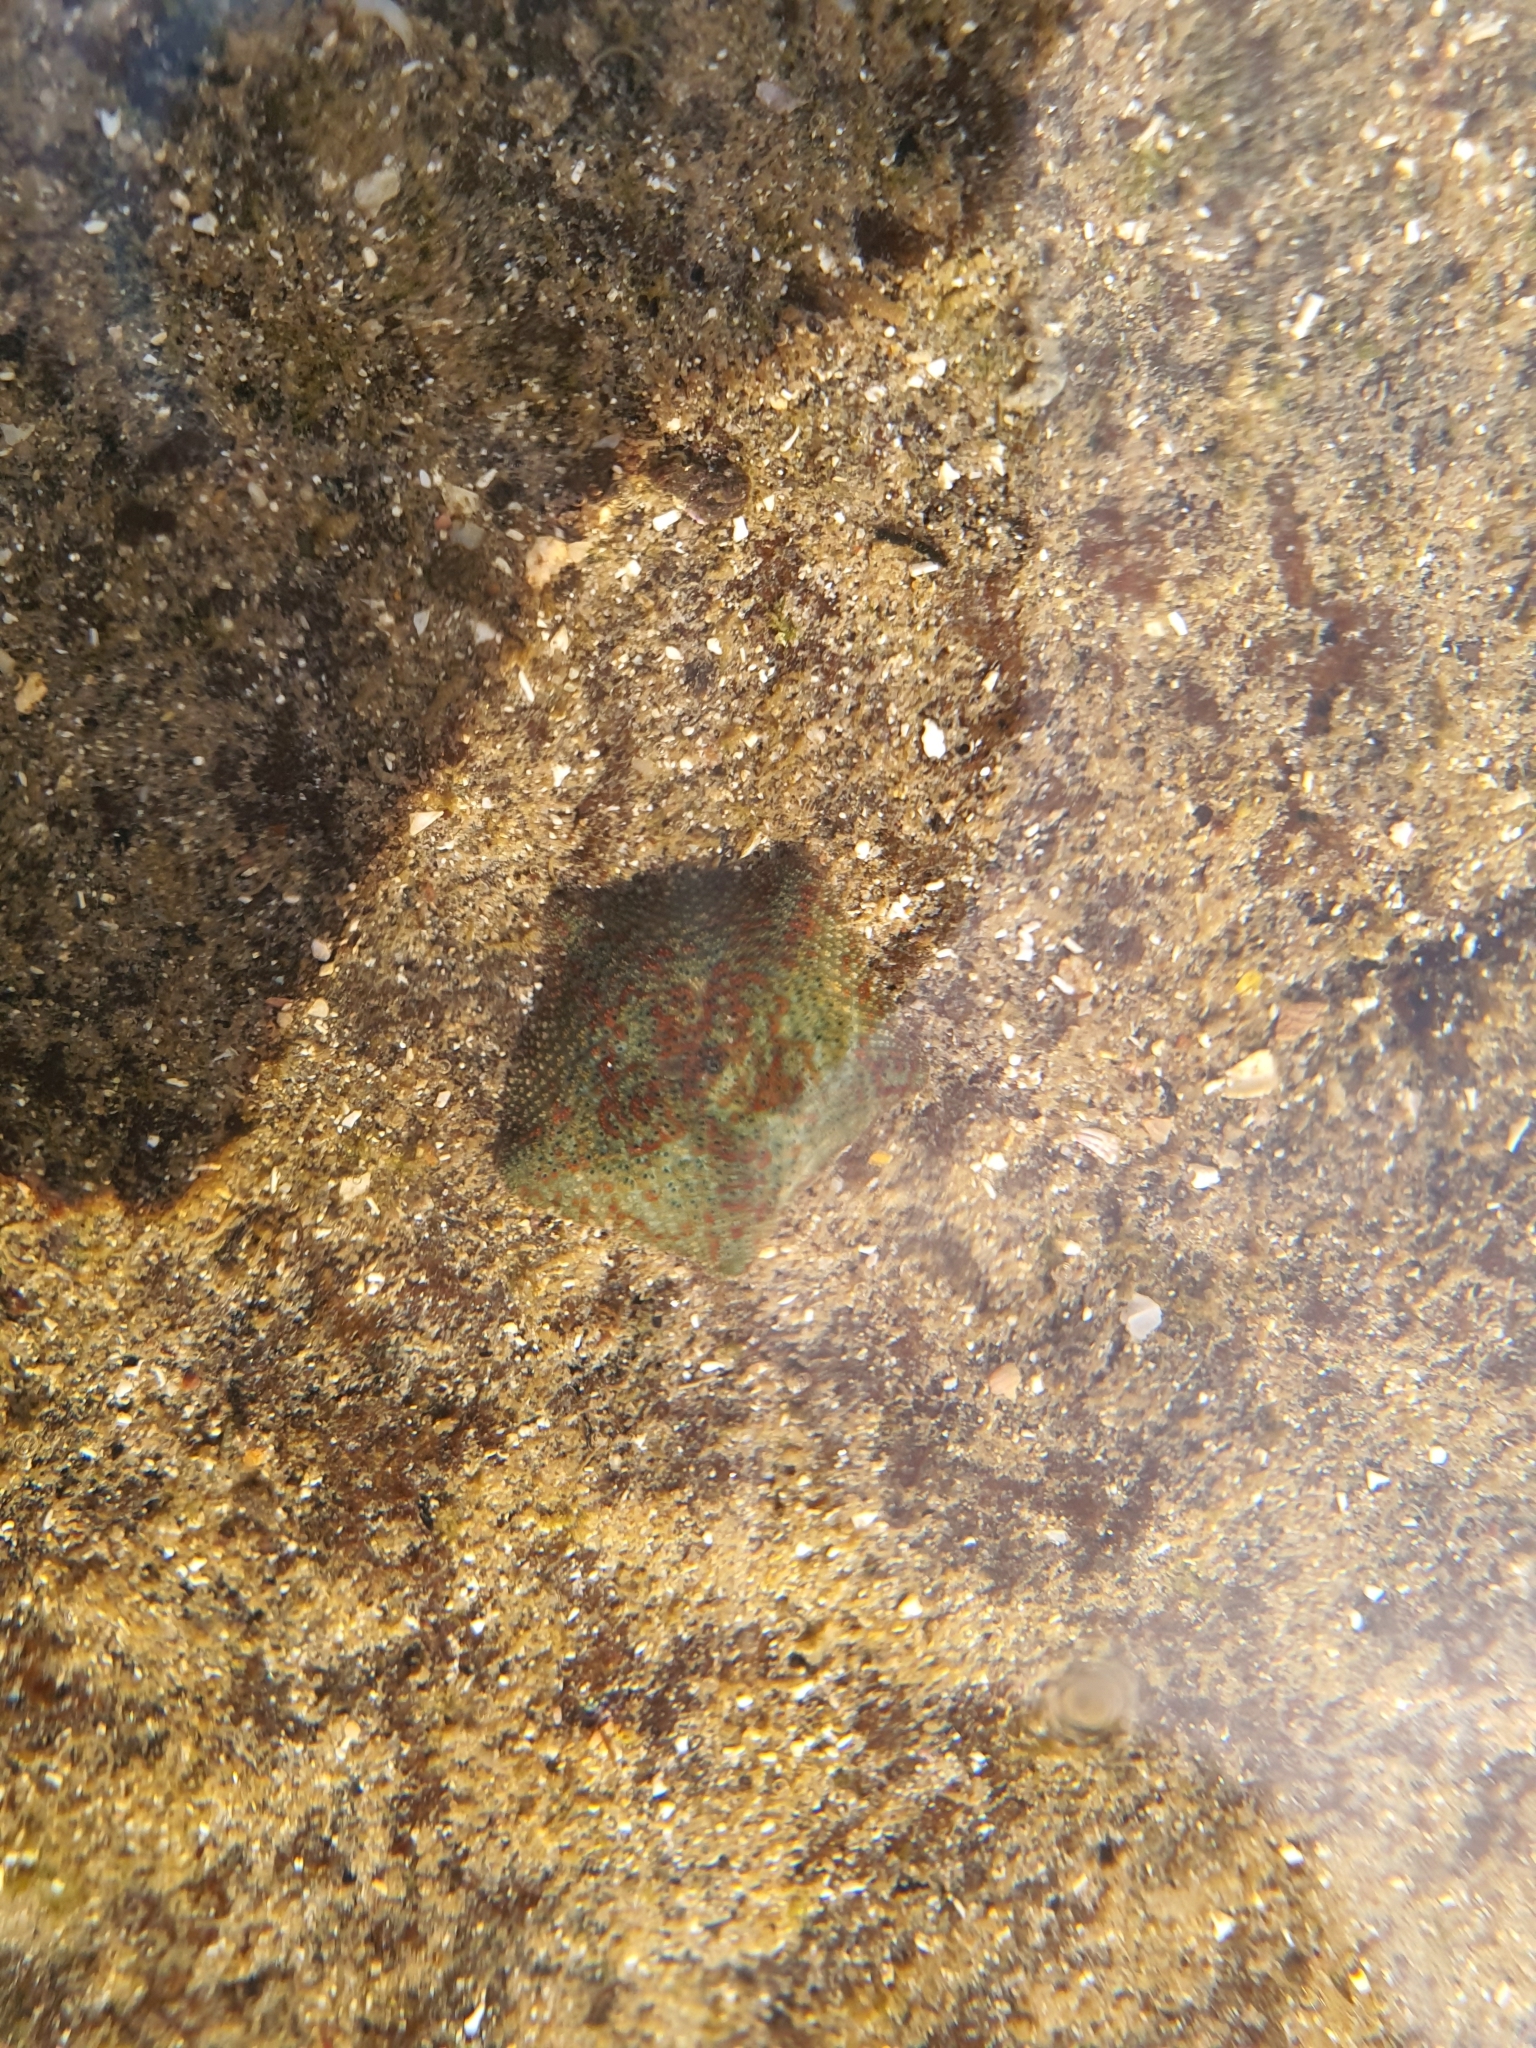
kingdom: Animalia
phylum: Echinodermata
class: Asteroidea
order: Valvatida
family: Asterinidae
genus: Parvulastra
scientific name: Parvulastra exigua
